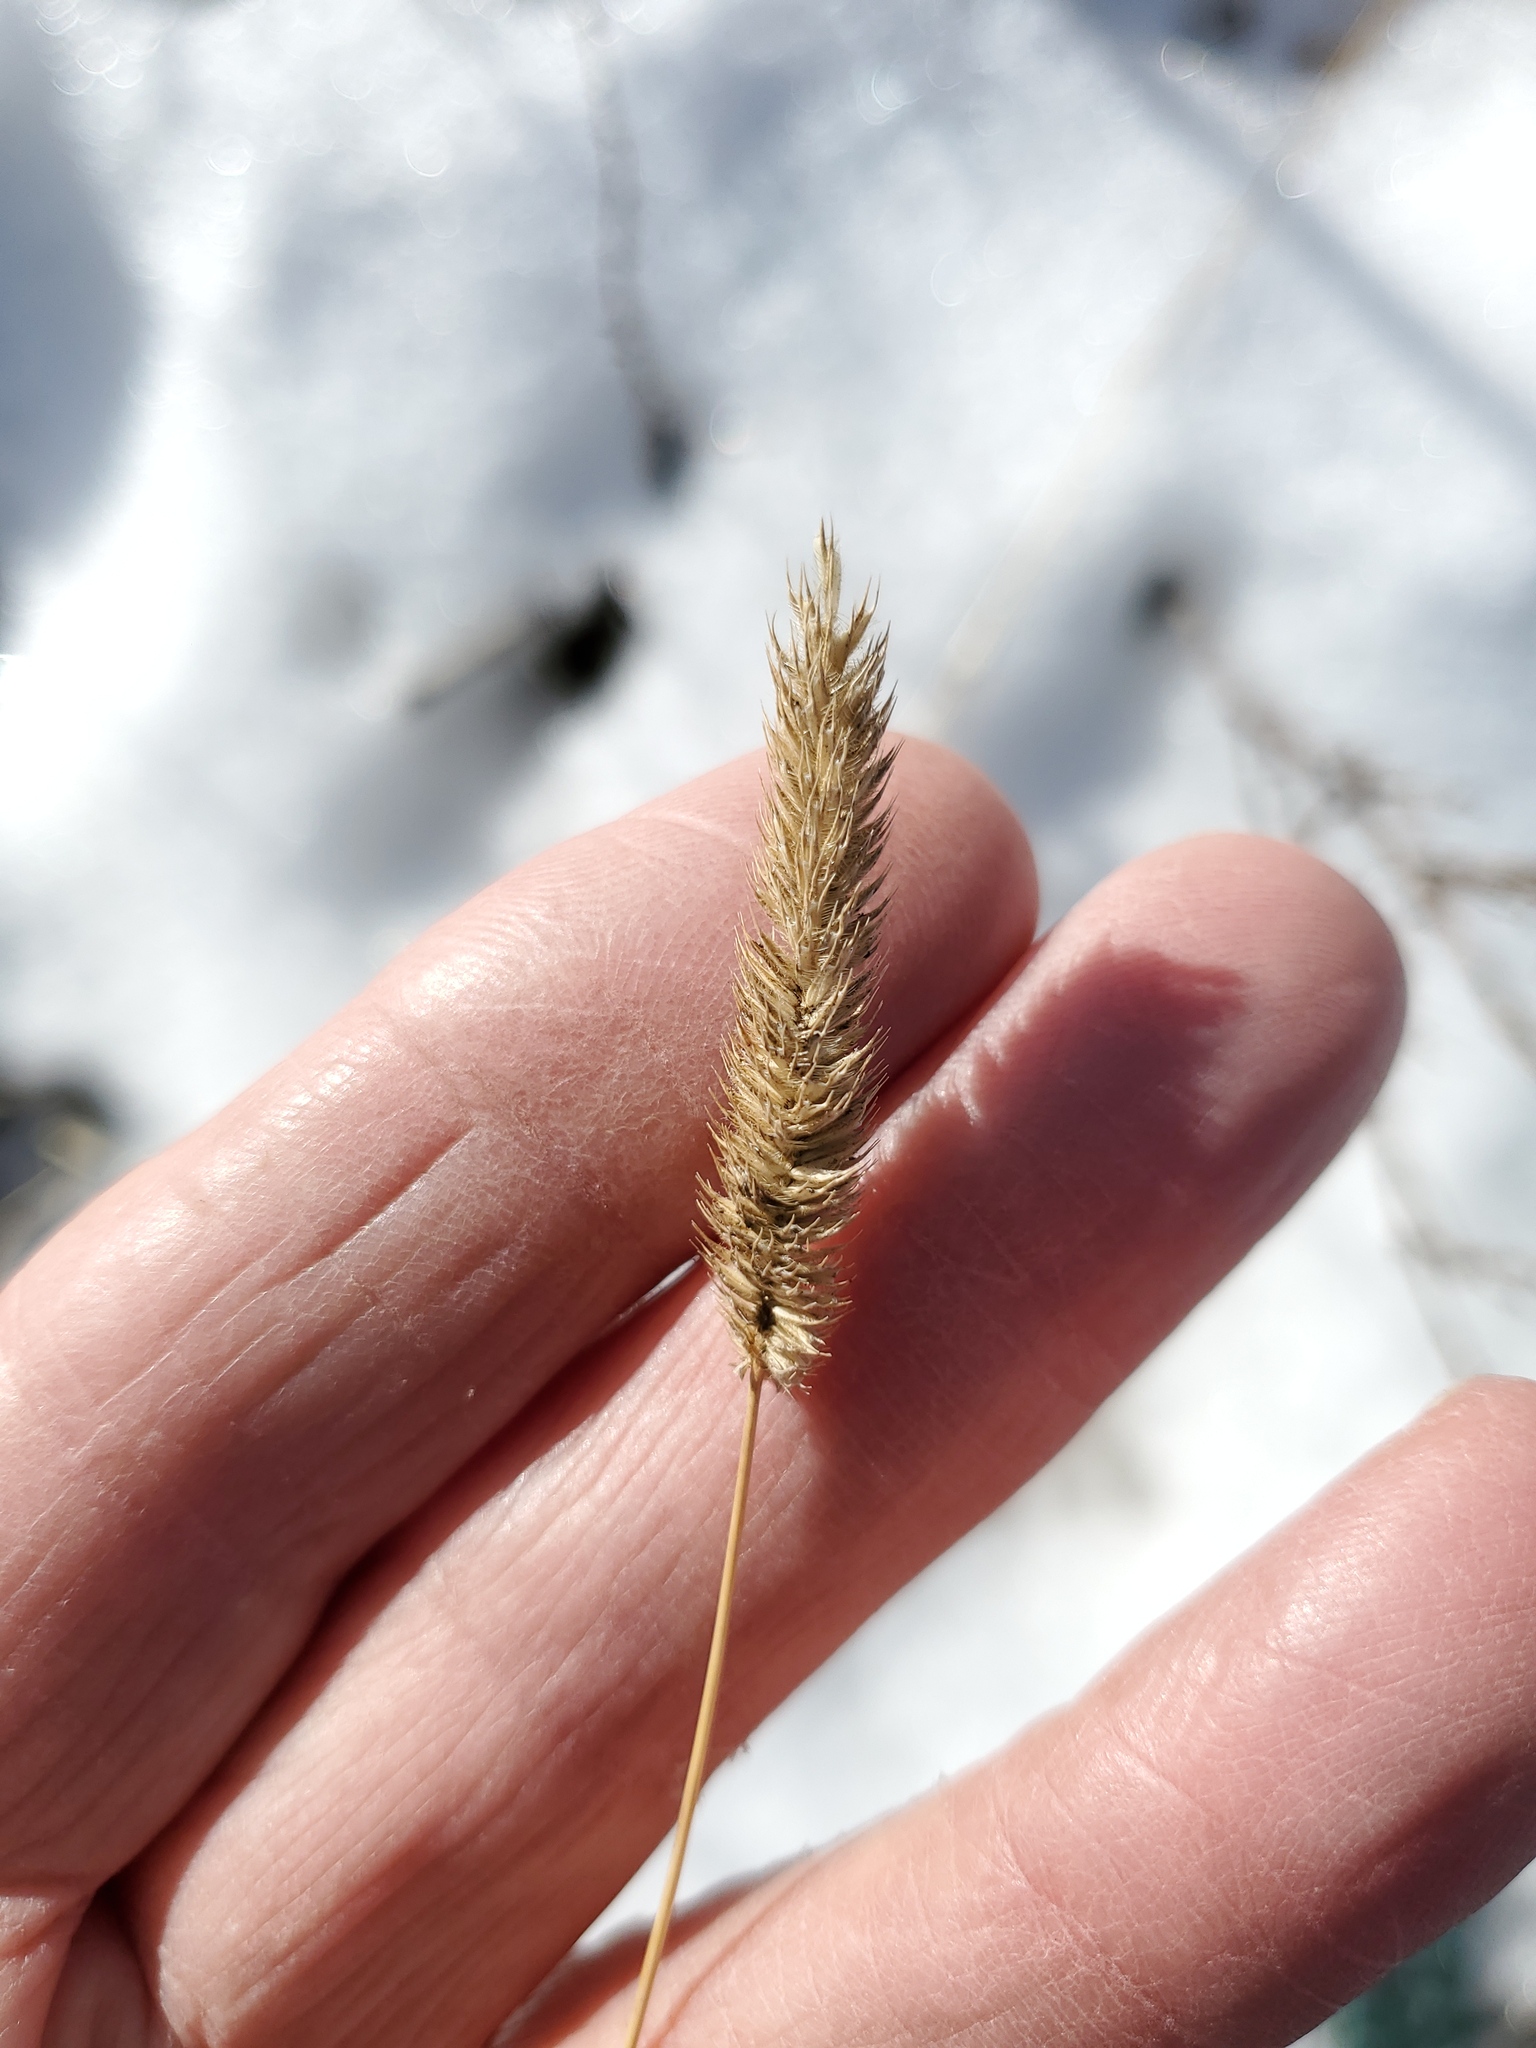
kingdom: Plantae
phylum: Tracheophyta
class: Liliopsida
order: Poales
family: Poaceae
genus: Phleum
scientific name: Phleum pratense
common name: Timothy grass
